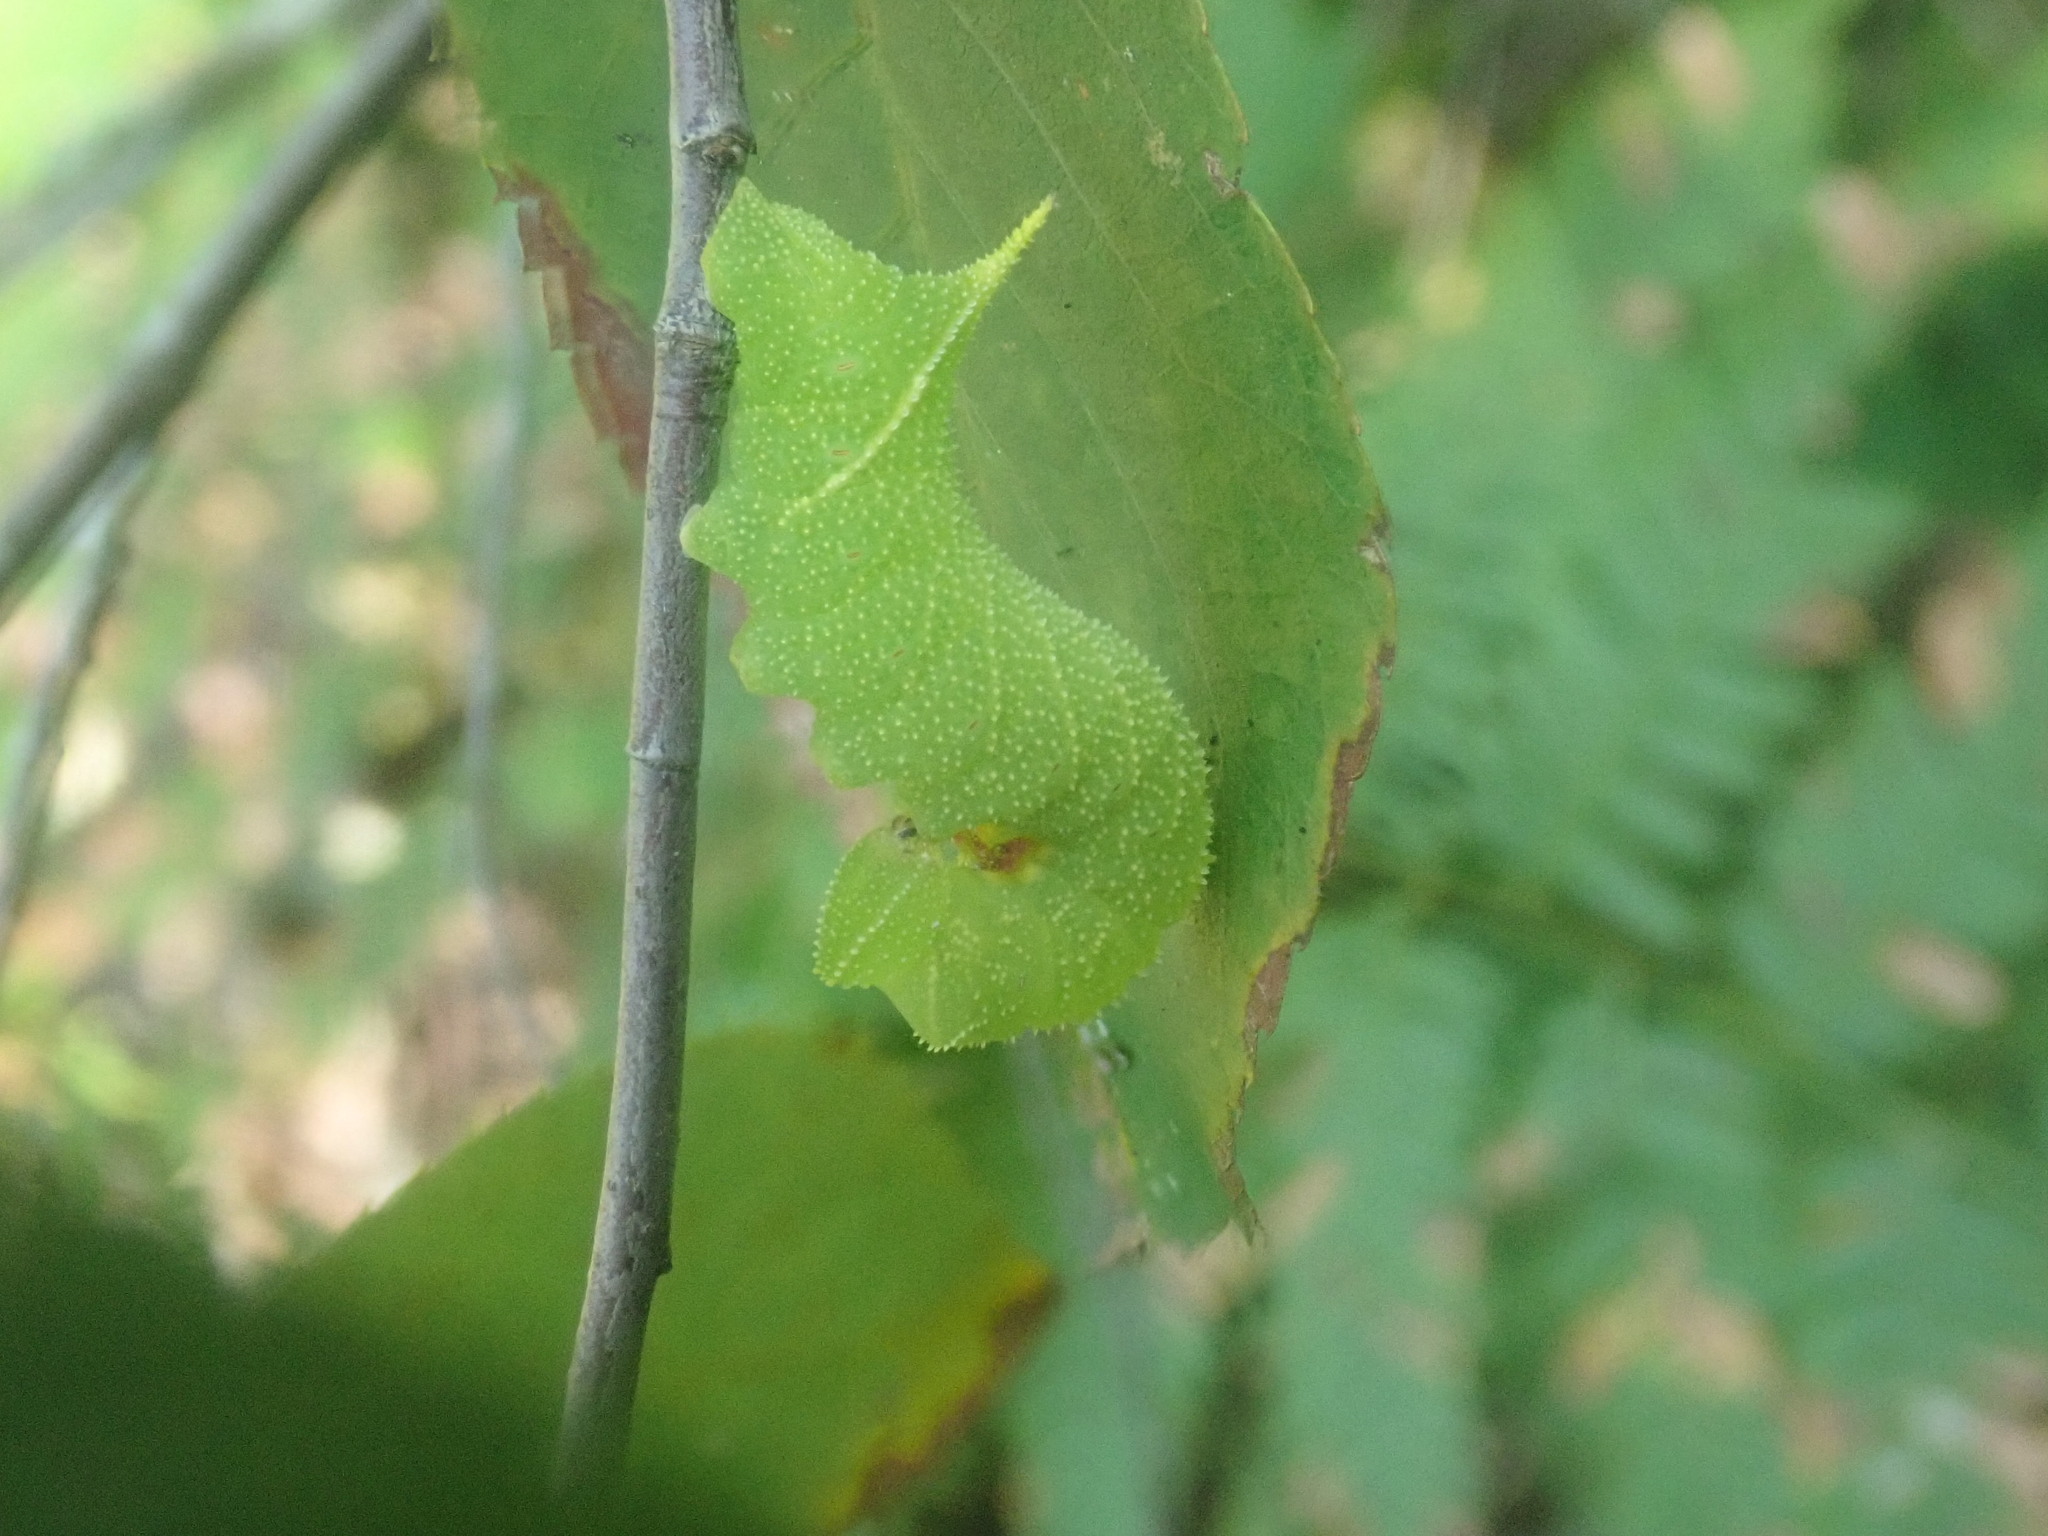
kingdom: Animalia
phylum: Arthropoda
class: Insecta
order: Lepidoptera
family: Sphingidae
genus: Paonias
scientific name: Paonias excaecata
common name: Blind-eyed sphinx
